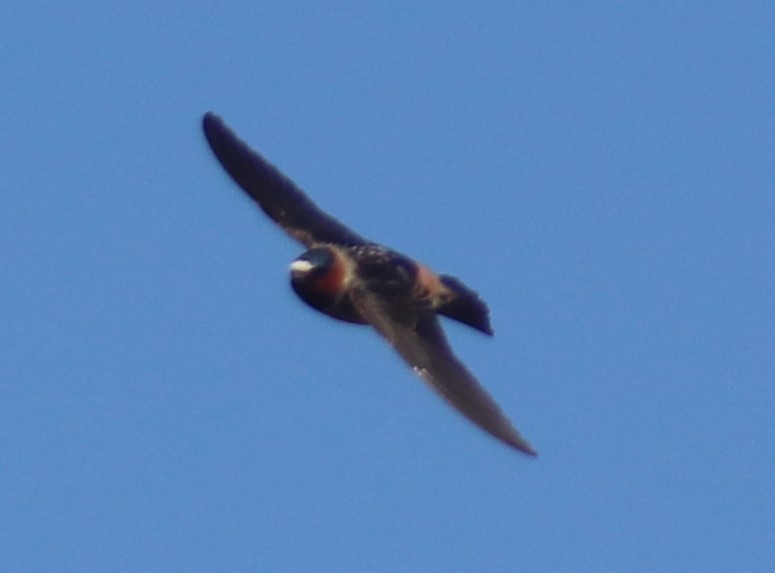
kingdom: Animalia
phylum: Chordata
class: Aves
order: Passeriformes
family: Hirundinidae
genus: Petrochelidon
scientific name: Petrochelidon pyrrhonota
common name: American cliff swallow
